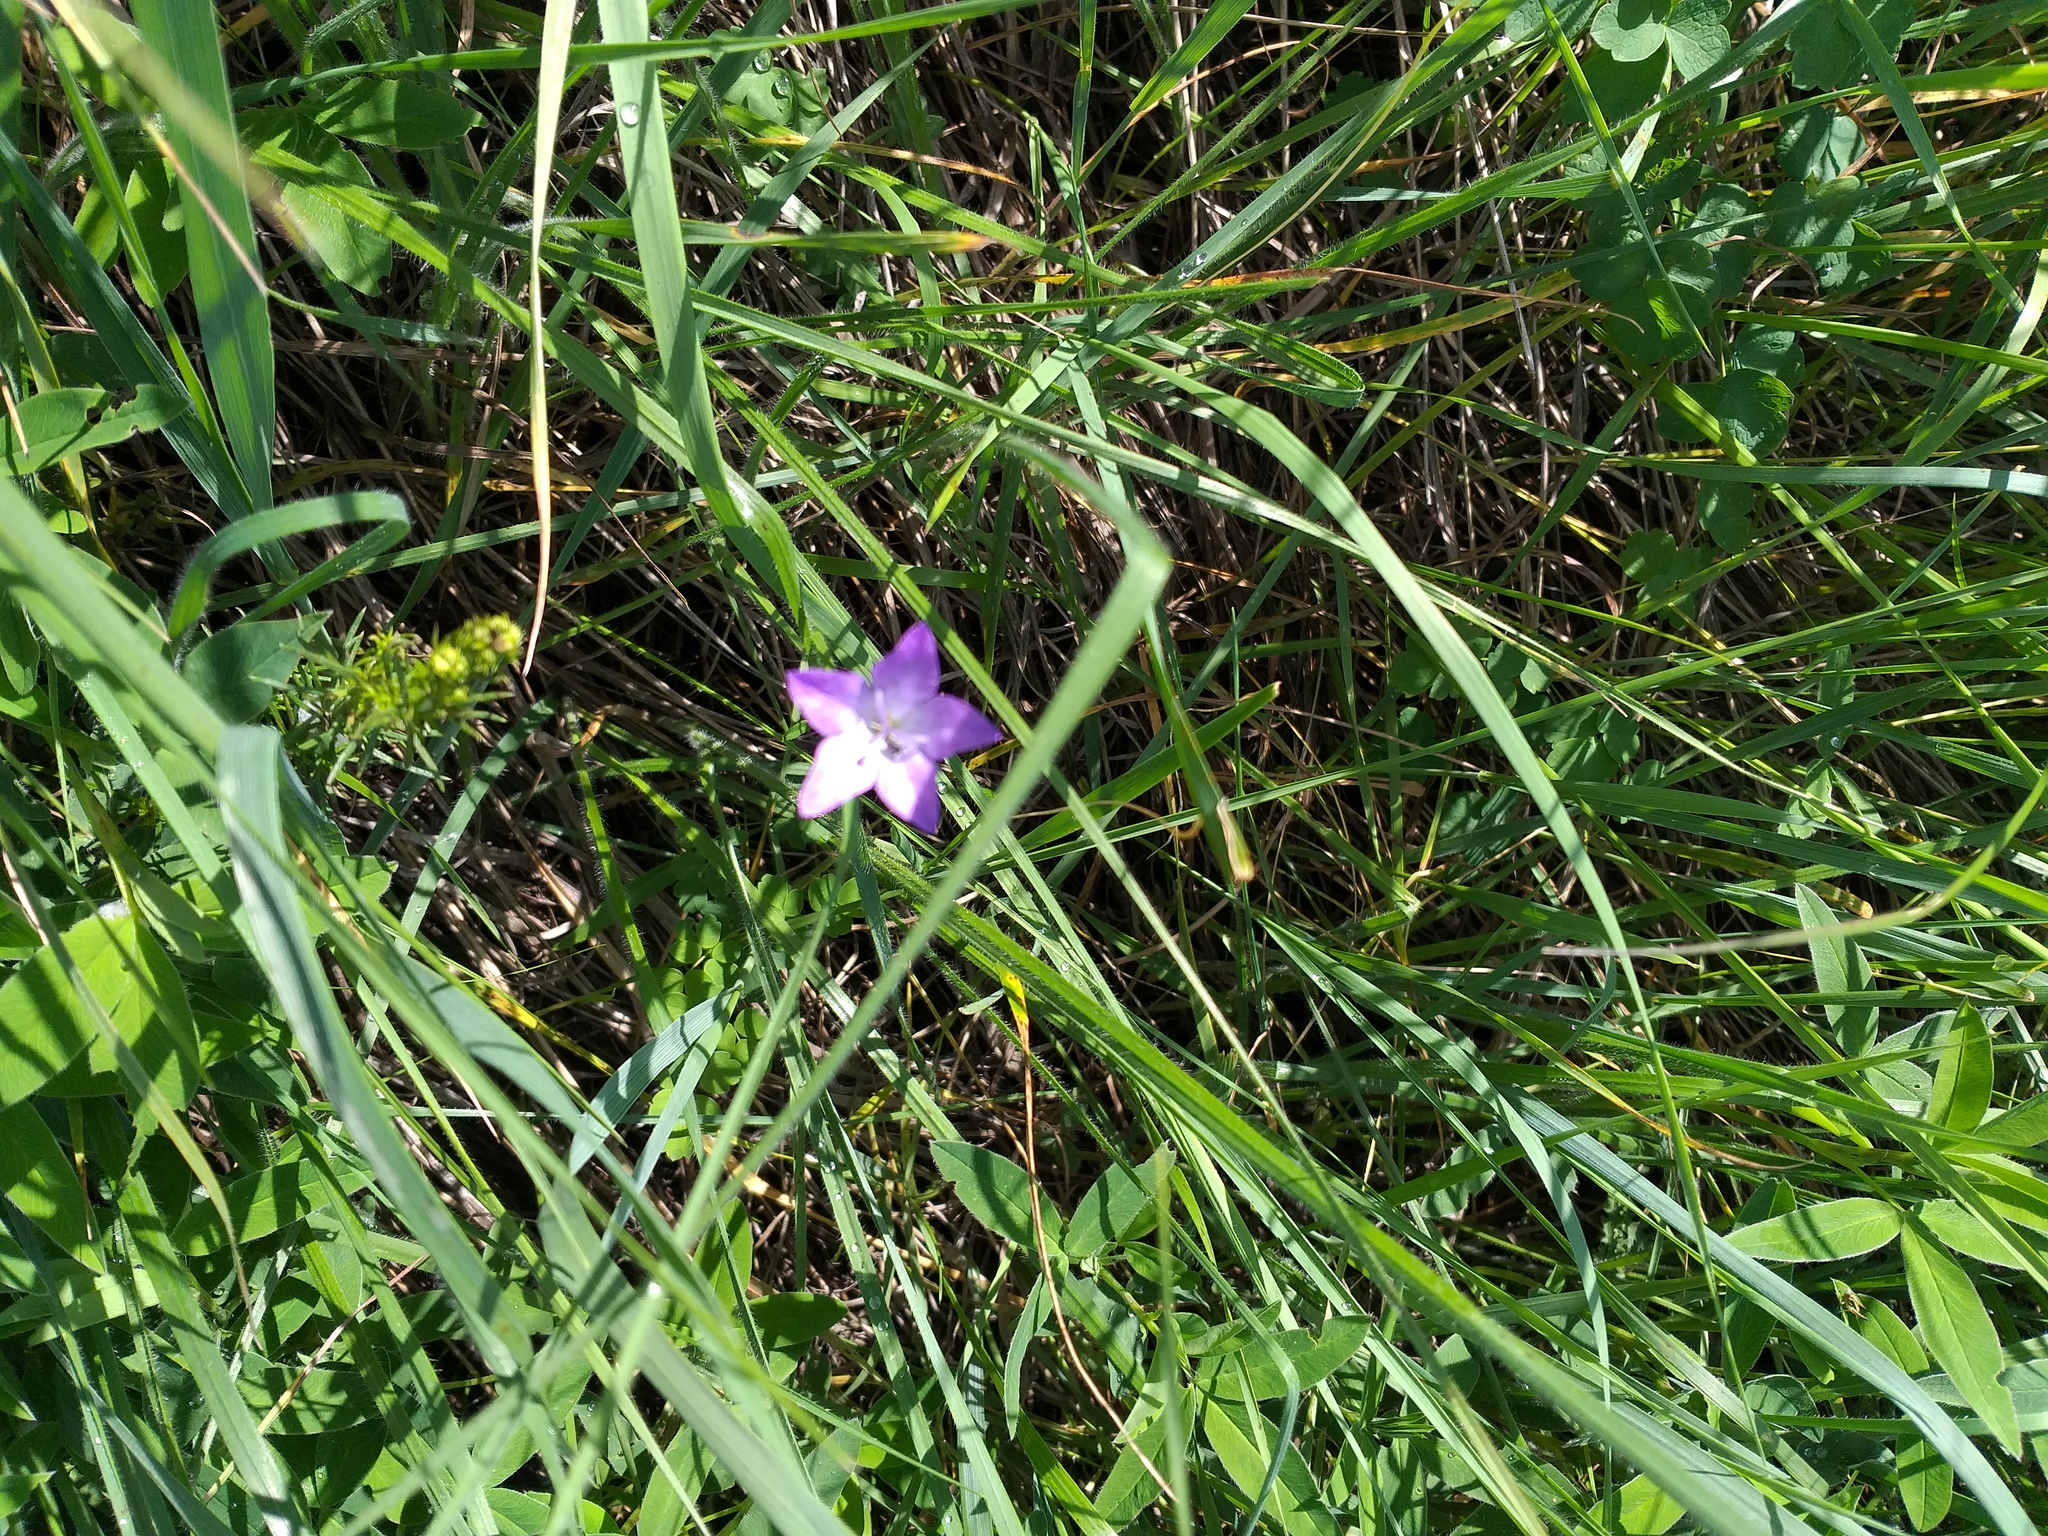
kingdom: Plantae
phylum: Tracheophyta
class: Magnoliopsida
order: Asterales
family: Campanulaceae
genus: Campanula
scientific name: Campanula stevenii
